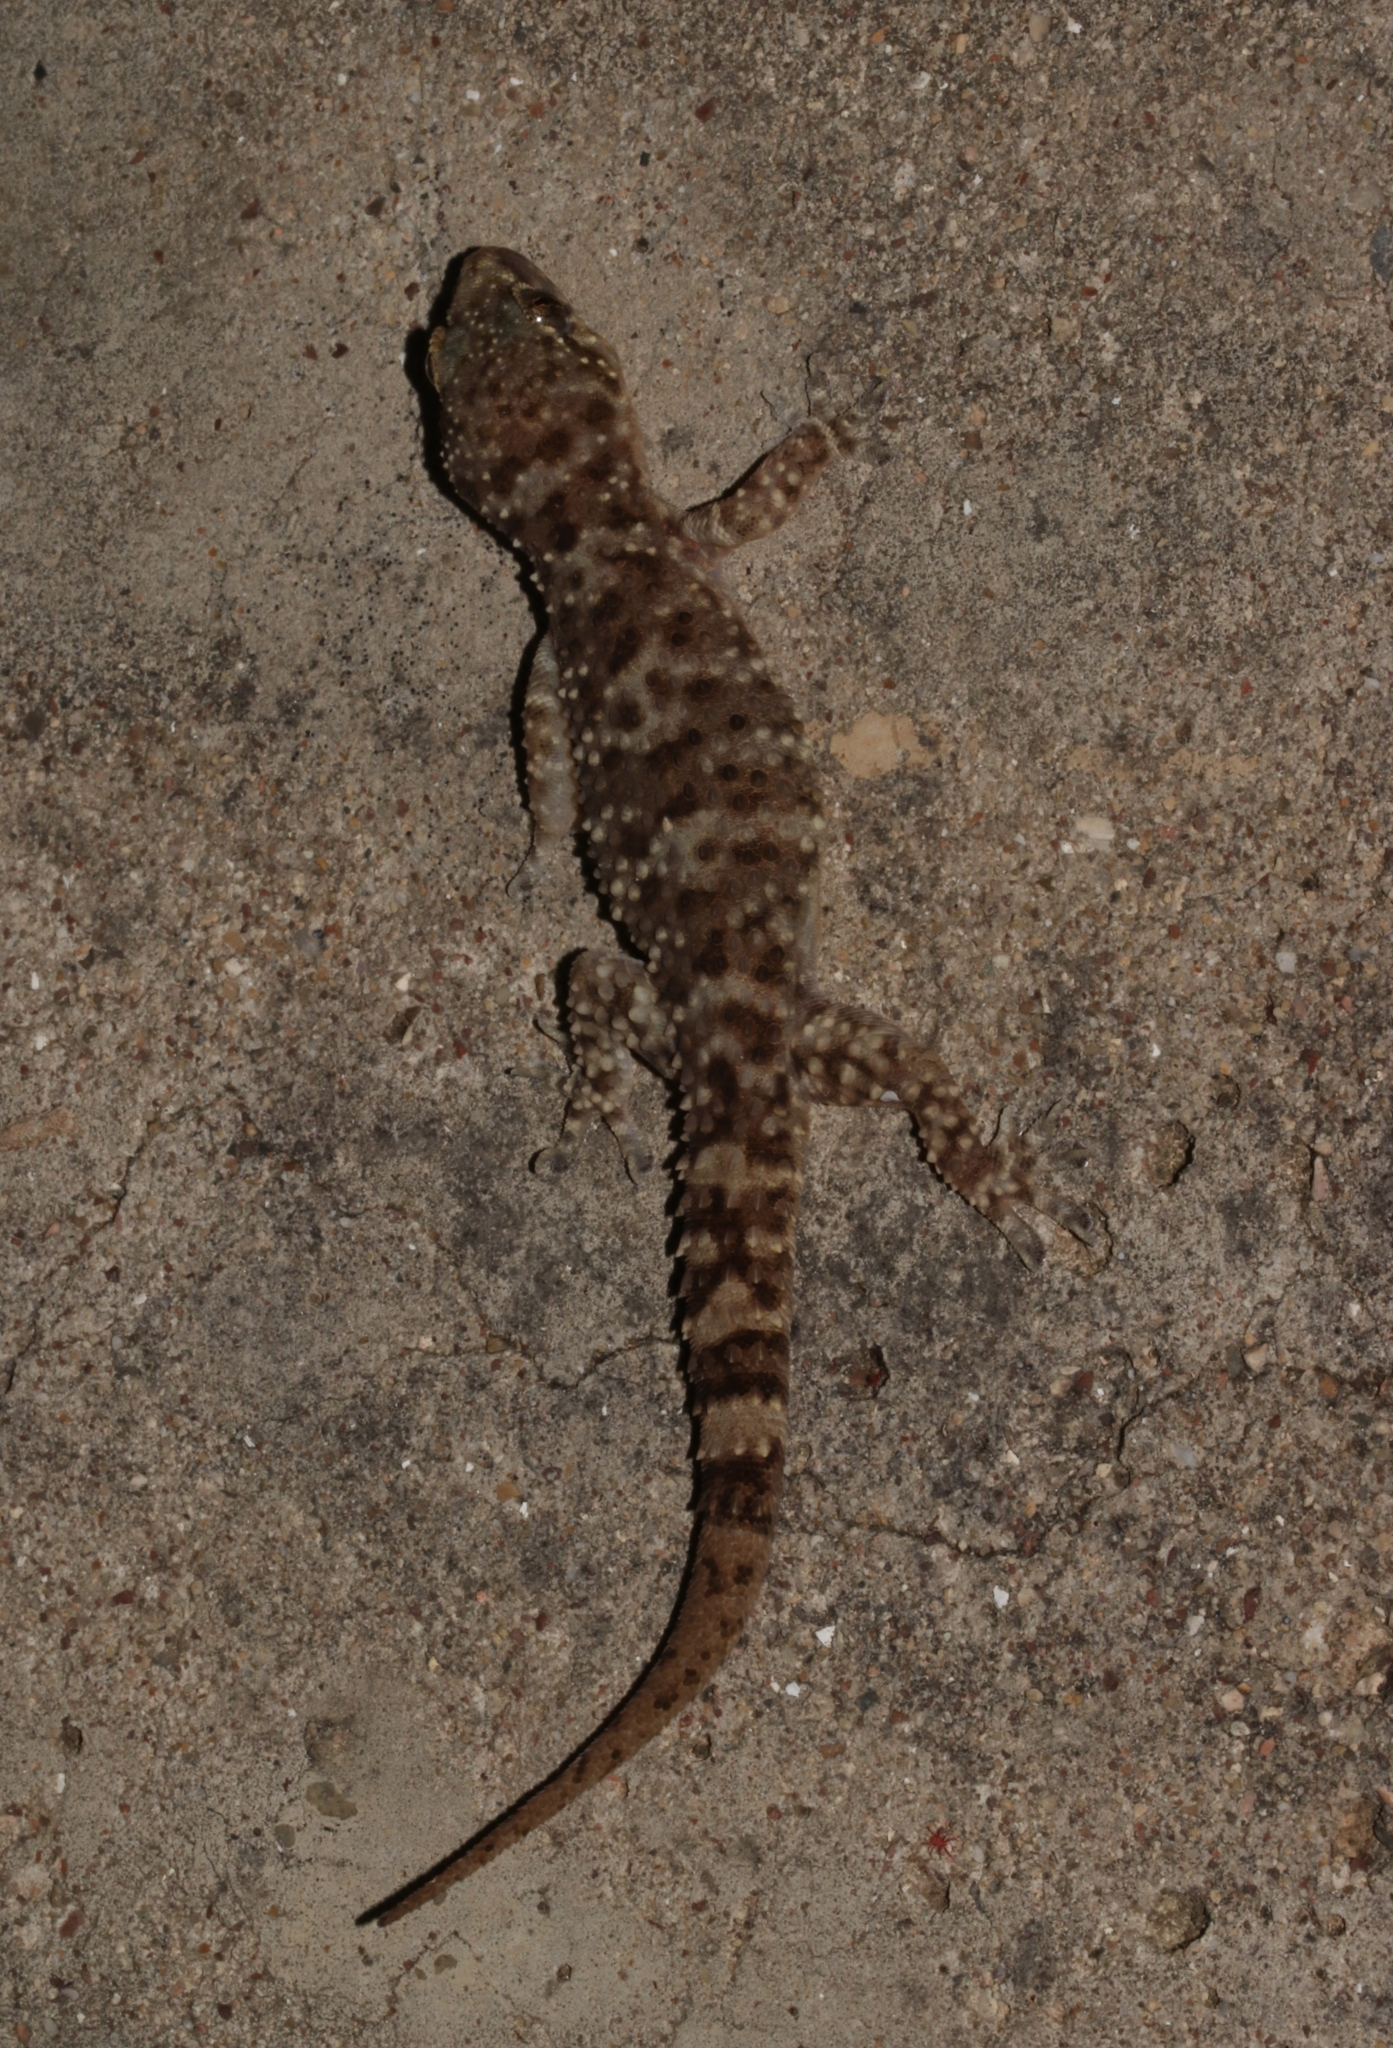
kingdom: Animalia
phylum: Chordata
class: Squamata
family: Gekkonidae
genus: Hemidactylus
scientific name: Hemidactylus turcicus
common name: Turkish gecko
